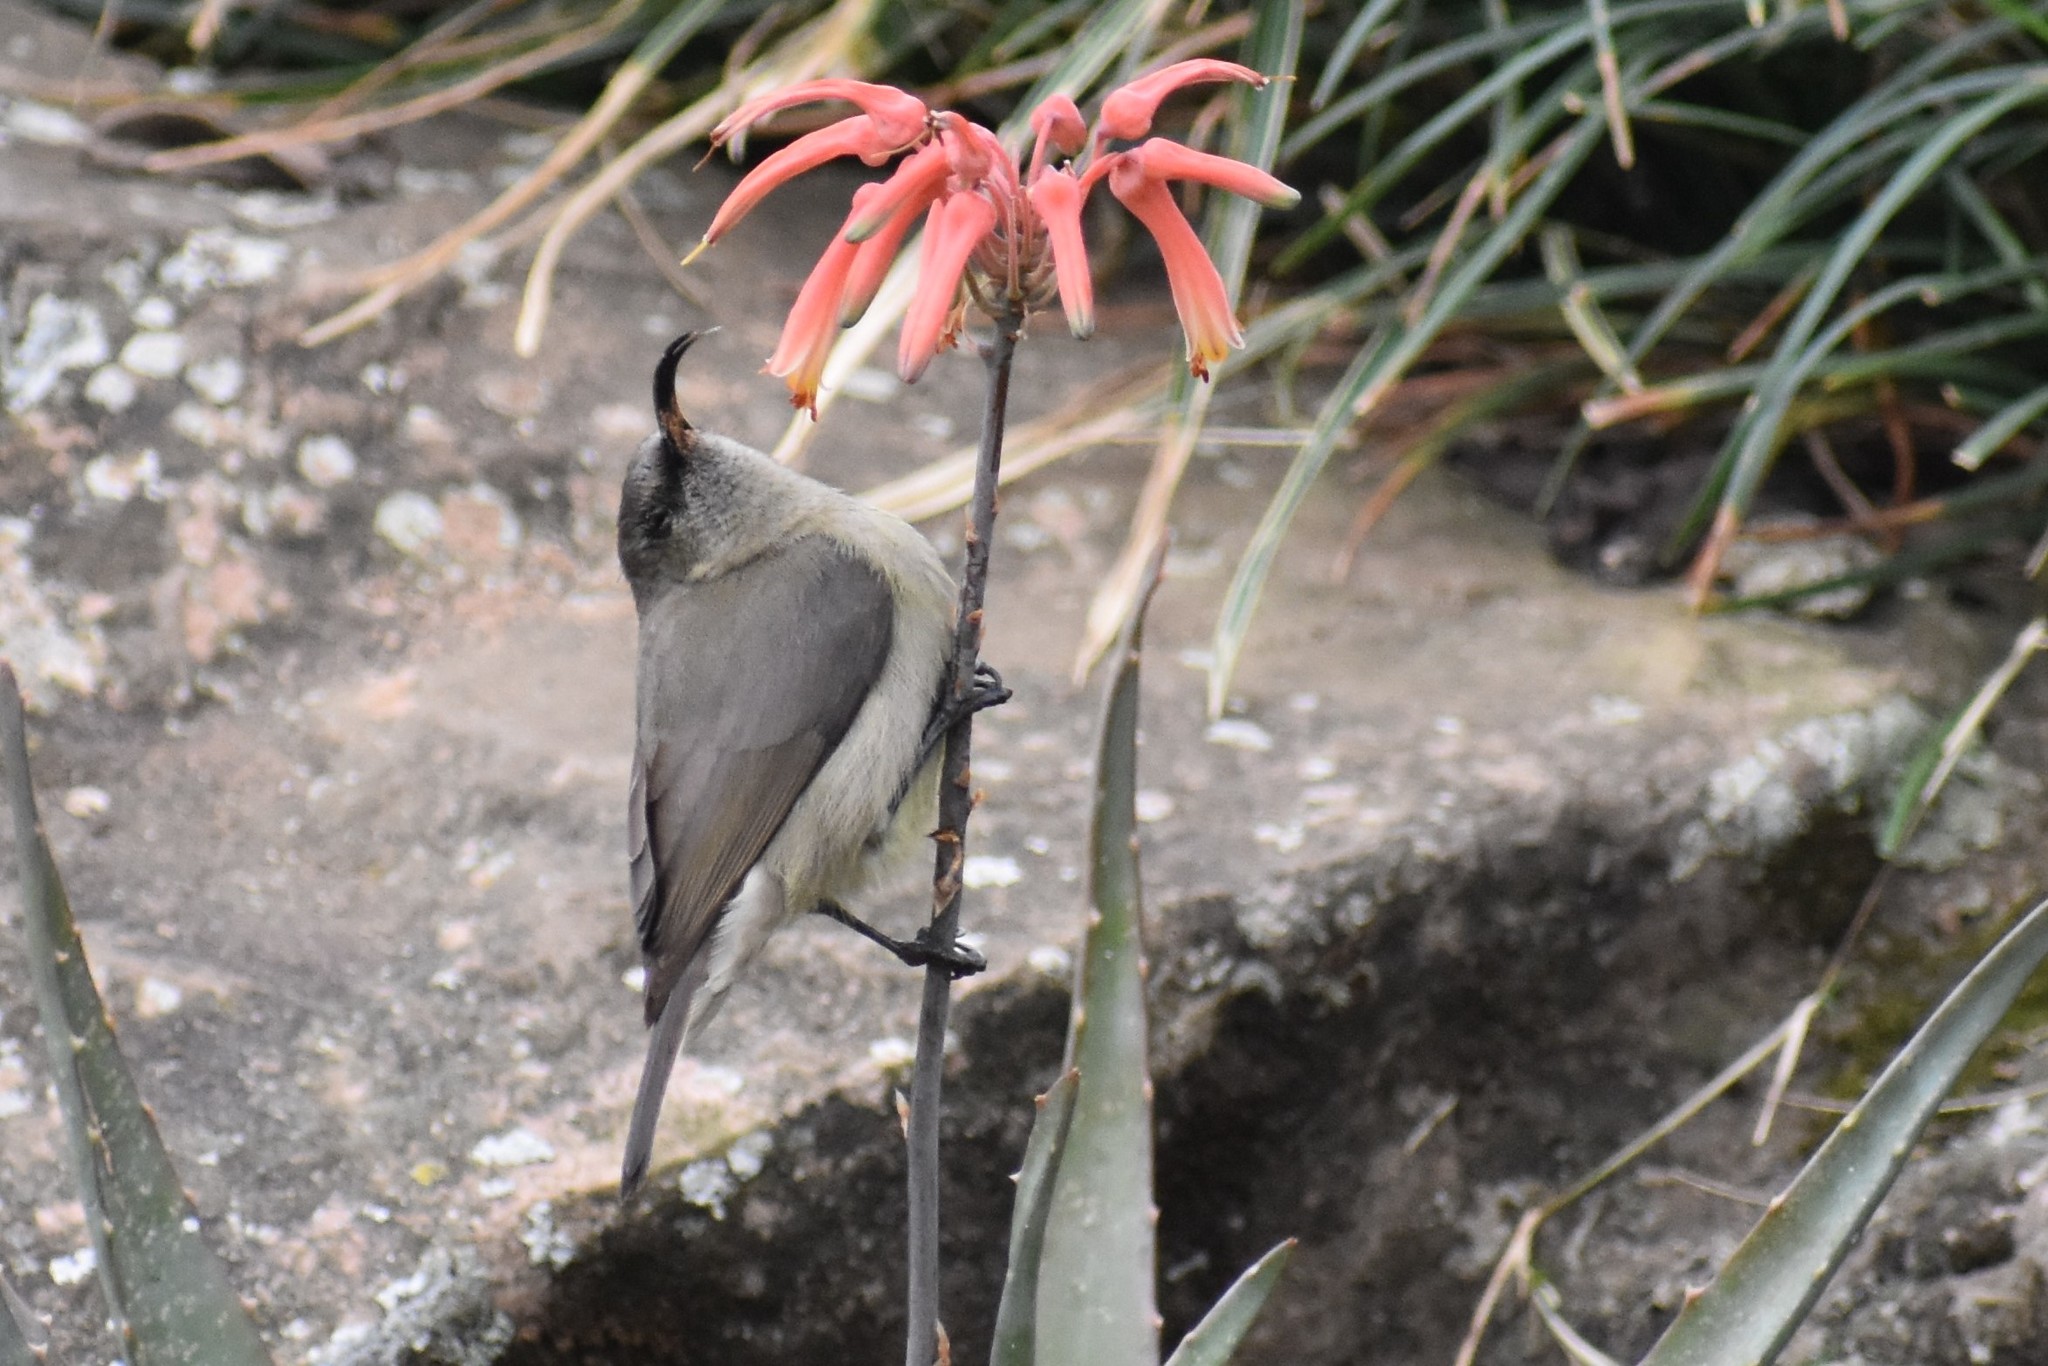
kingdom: Animalia
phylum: Chordata
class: Aves
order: Passeriformes
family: Nectariniidae
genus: Cinnyris
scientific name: Cinnyris chalybeus
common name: Southern double-collared sunbird
